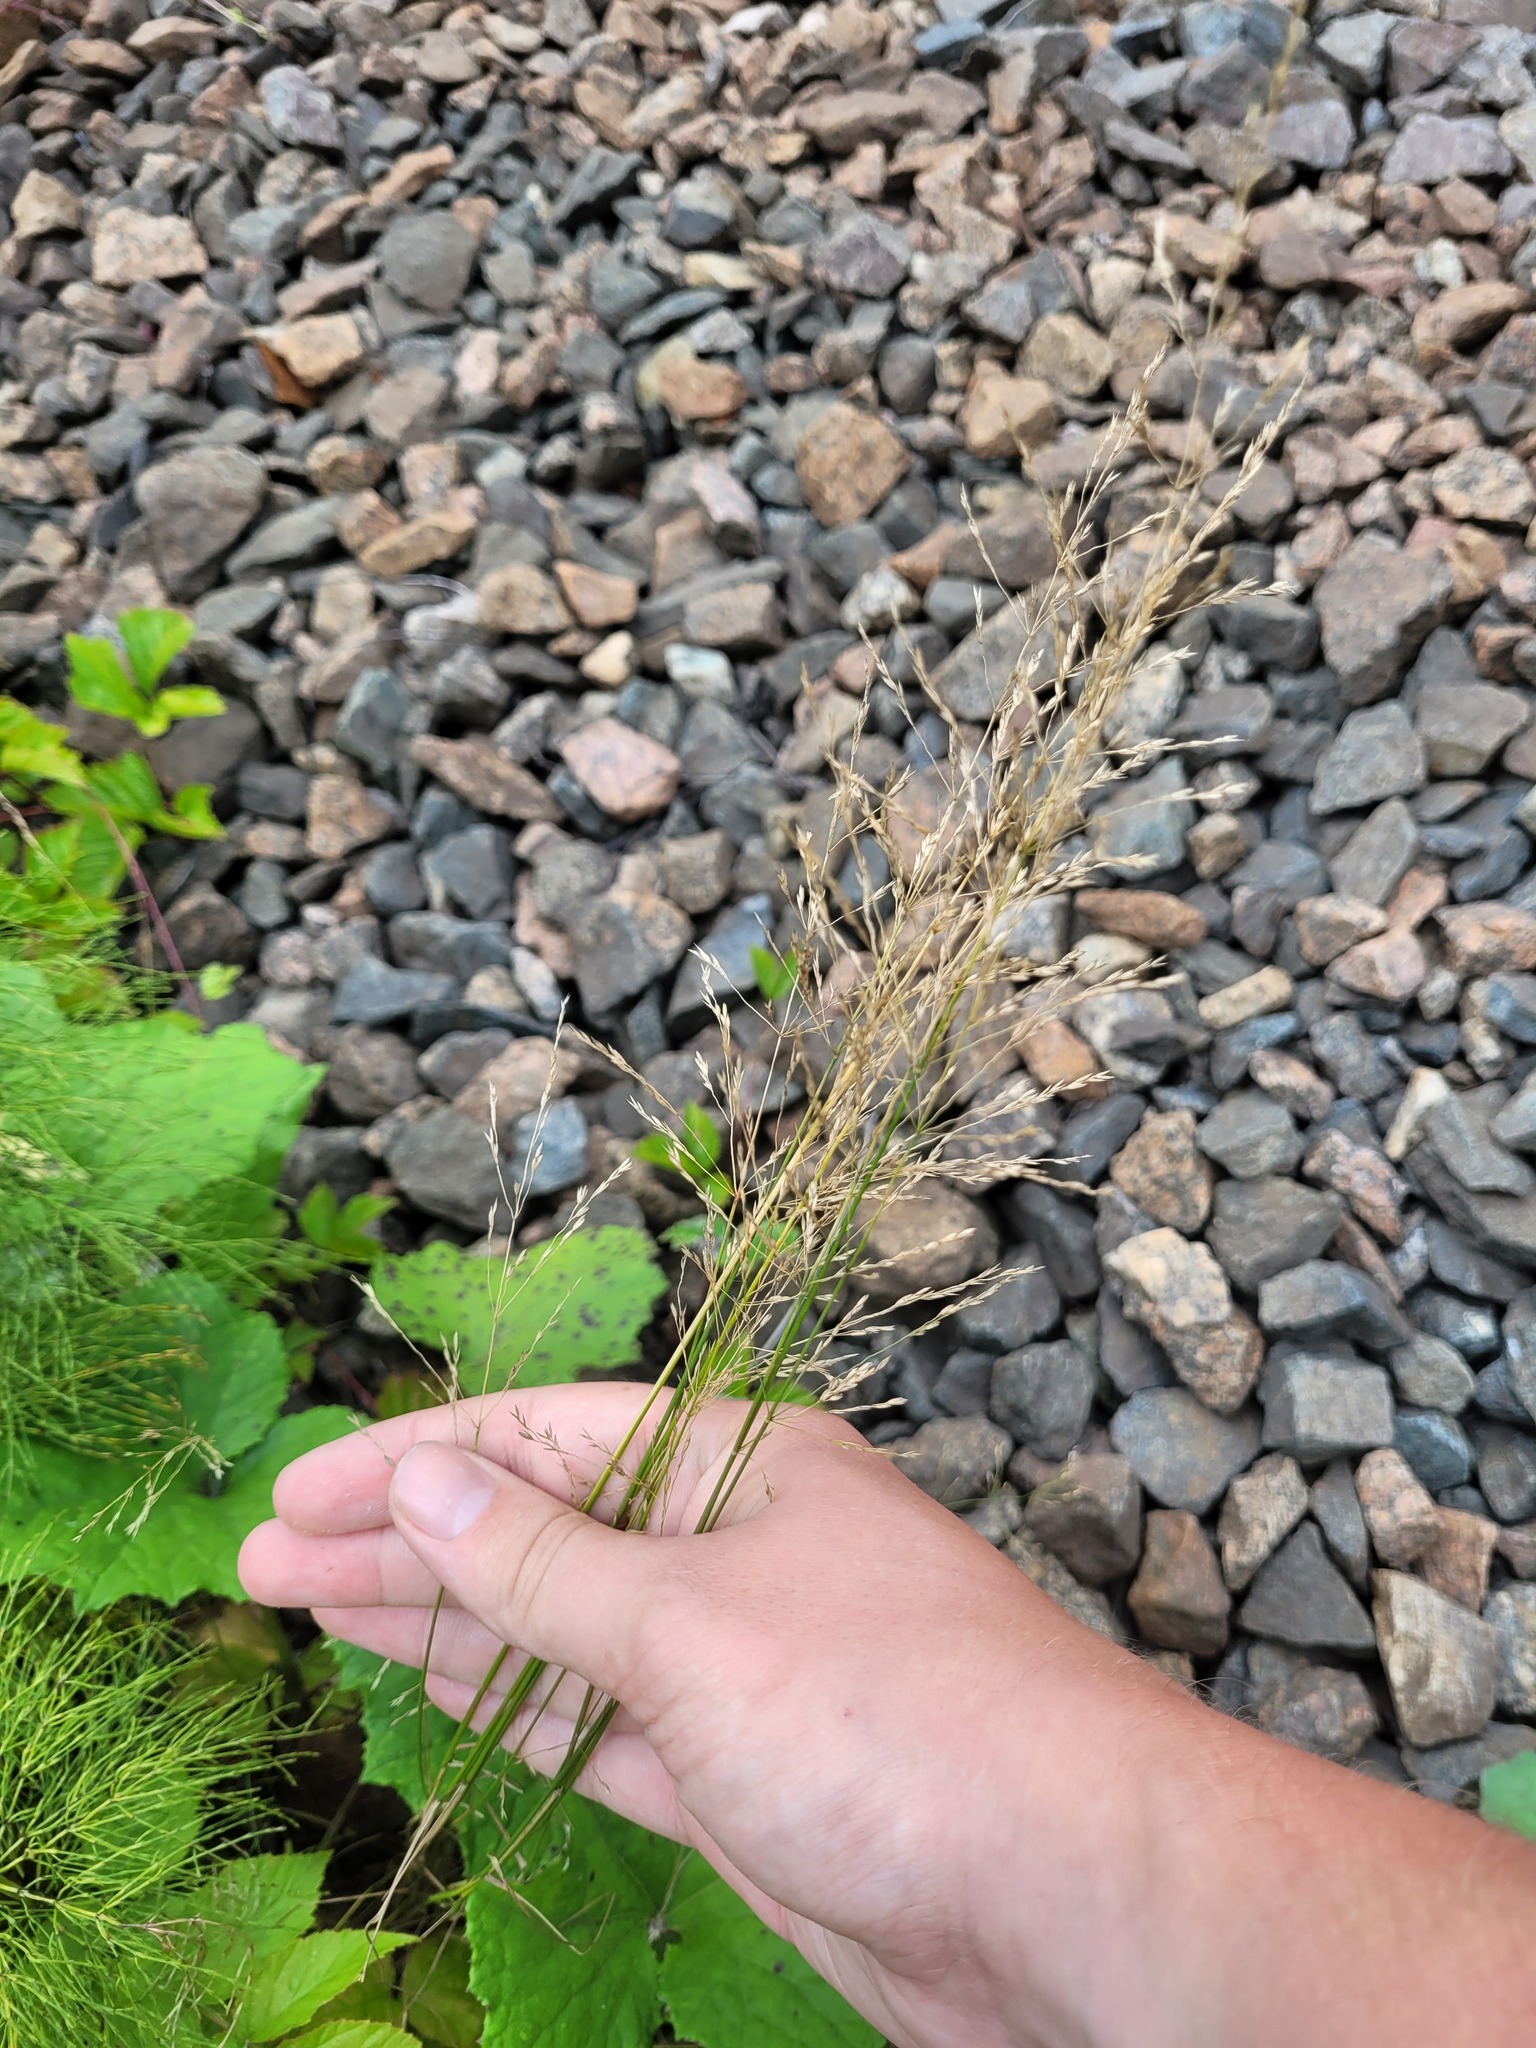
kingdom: Plantae
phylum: Tracheophyta
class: Liliopsida
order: Poales
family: Poaceae
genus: Poa
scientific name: Poa palustris
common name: Swamp meadow-grass
